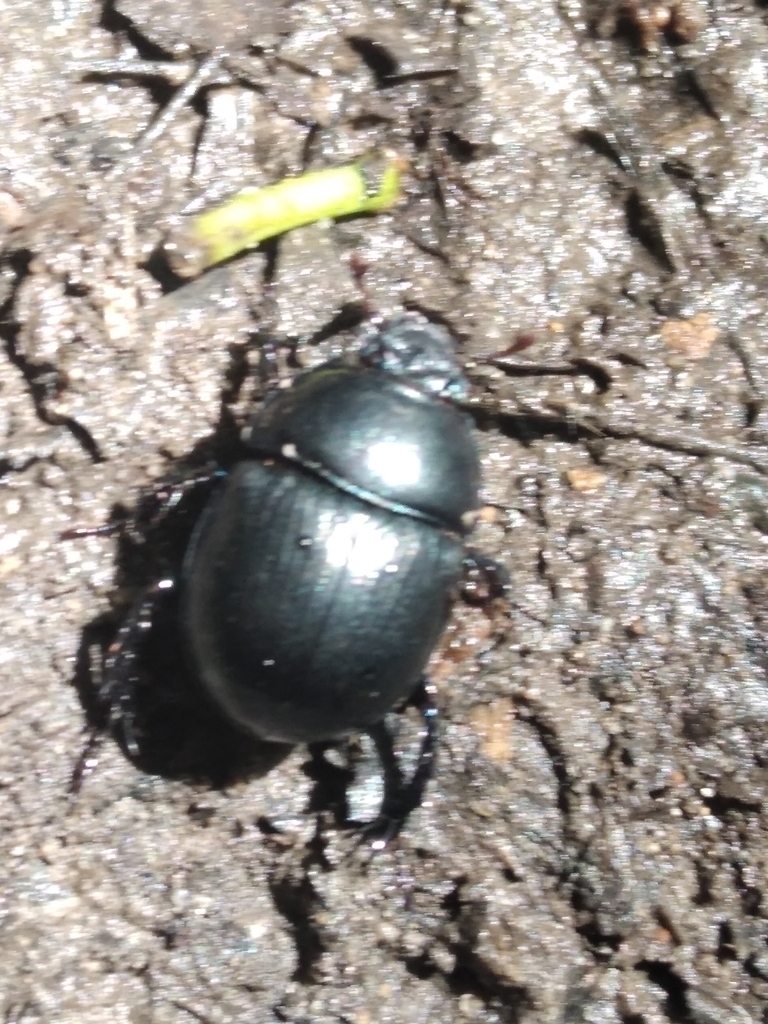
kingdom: Animalia
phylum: Arthropoda
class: Insecta
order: Coleoptera
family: Geotrupidae
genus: Anoplotrupes
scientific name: Anoplotrupes stercorosus
